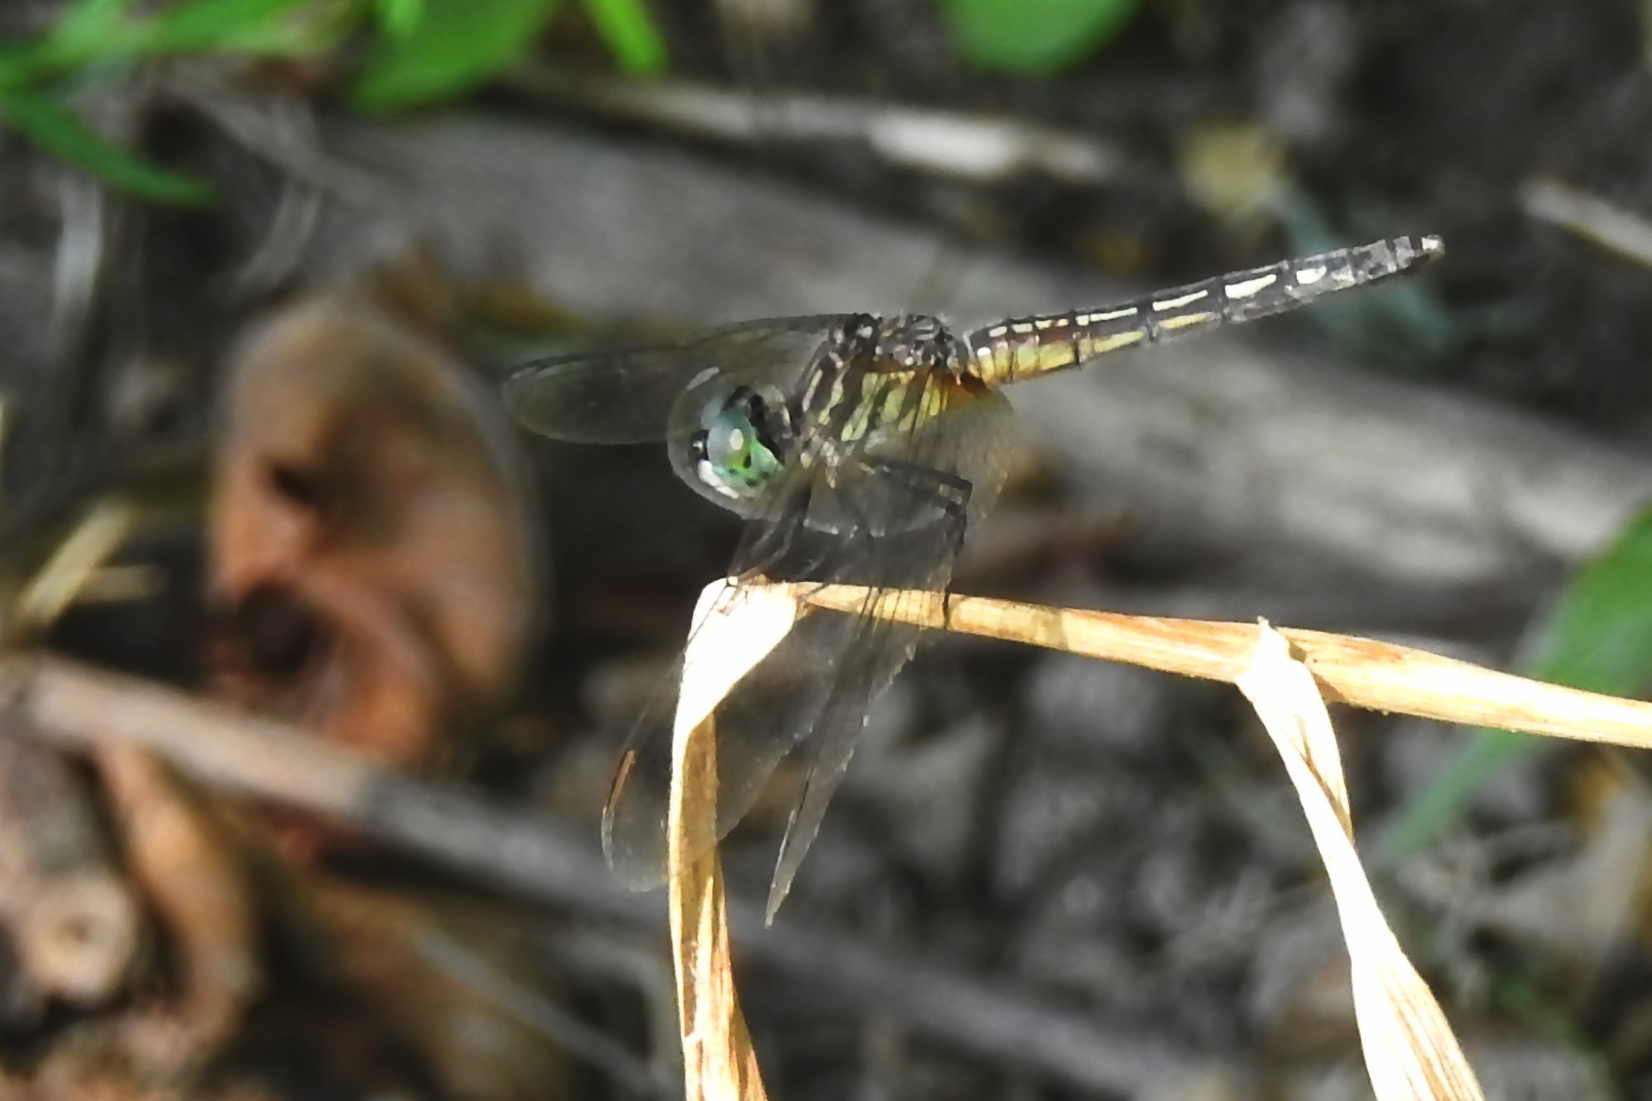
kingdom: Animalia
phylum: Arthropoda
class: Insecta
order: Odonata
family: Libellulidae
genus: Pachydiplax
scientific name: Pachydiplax longipennis
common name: Blue dasher
